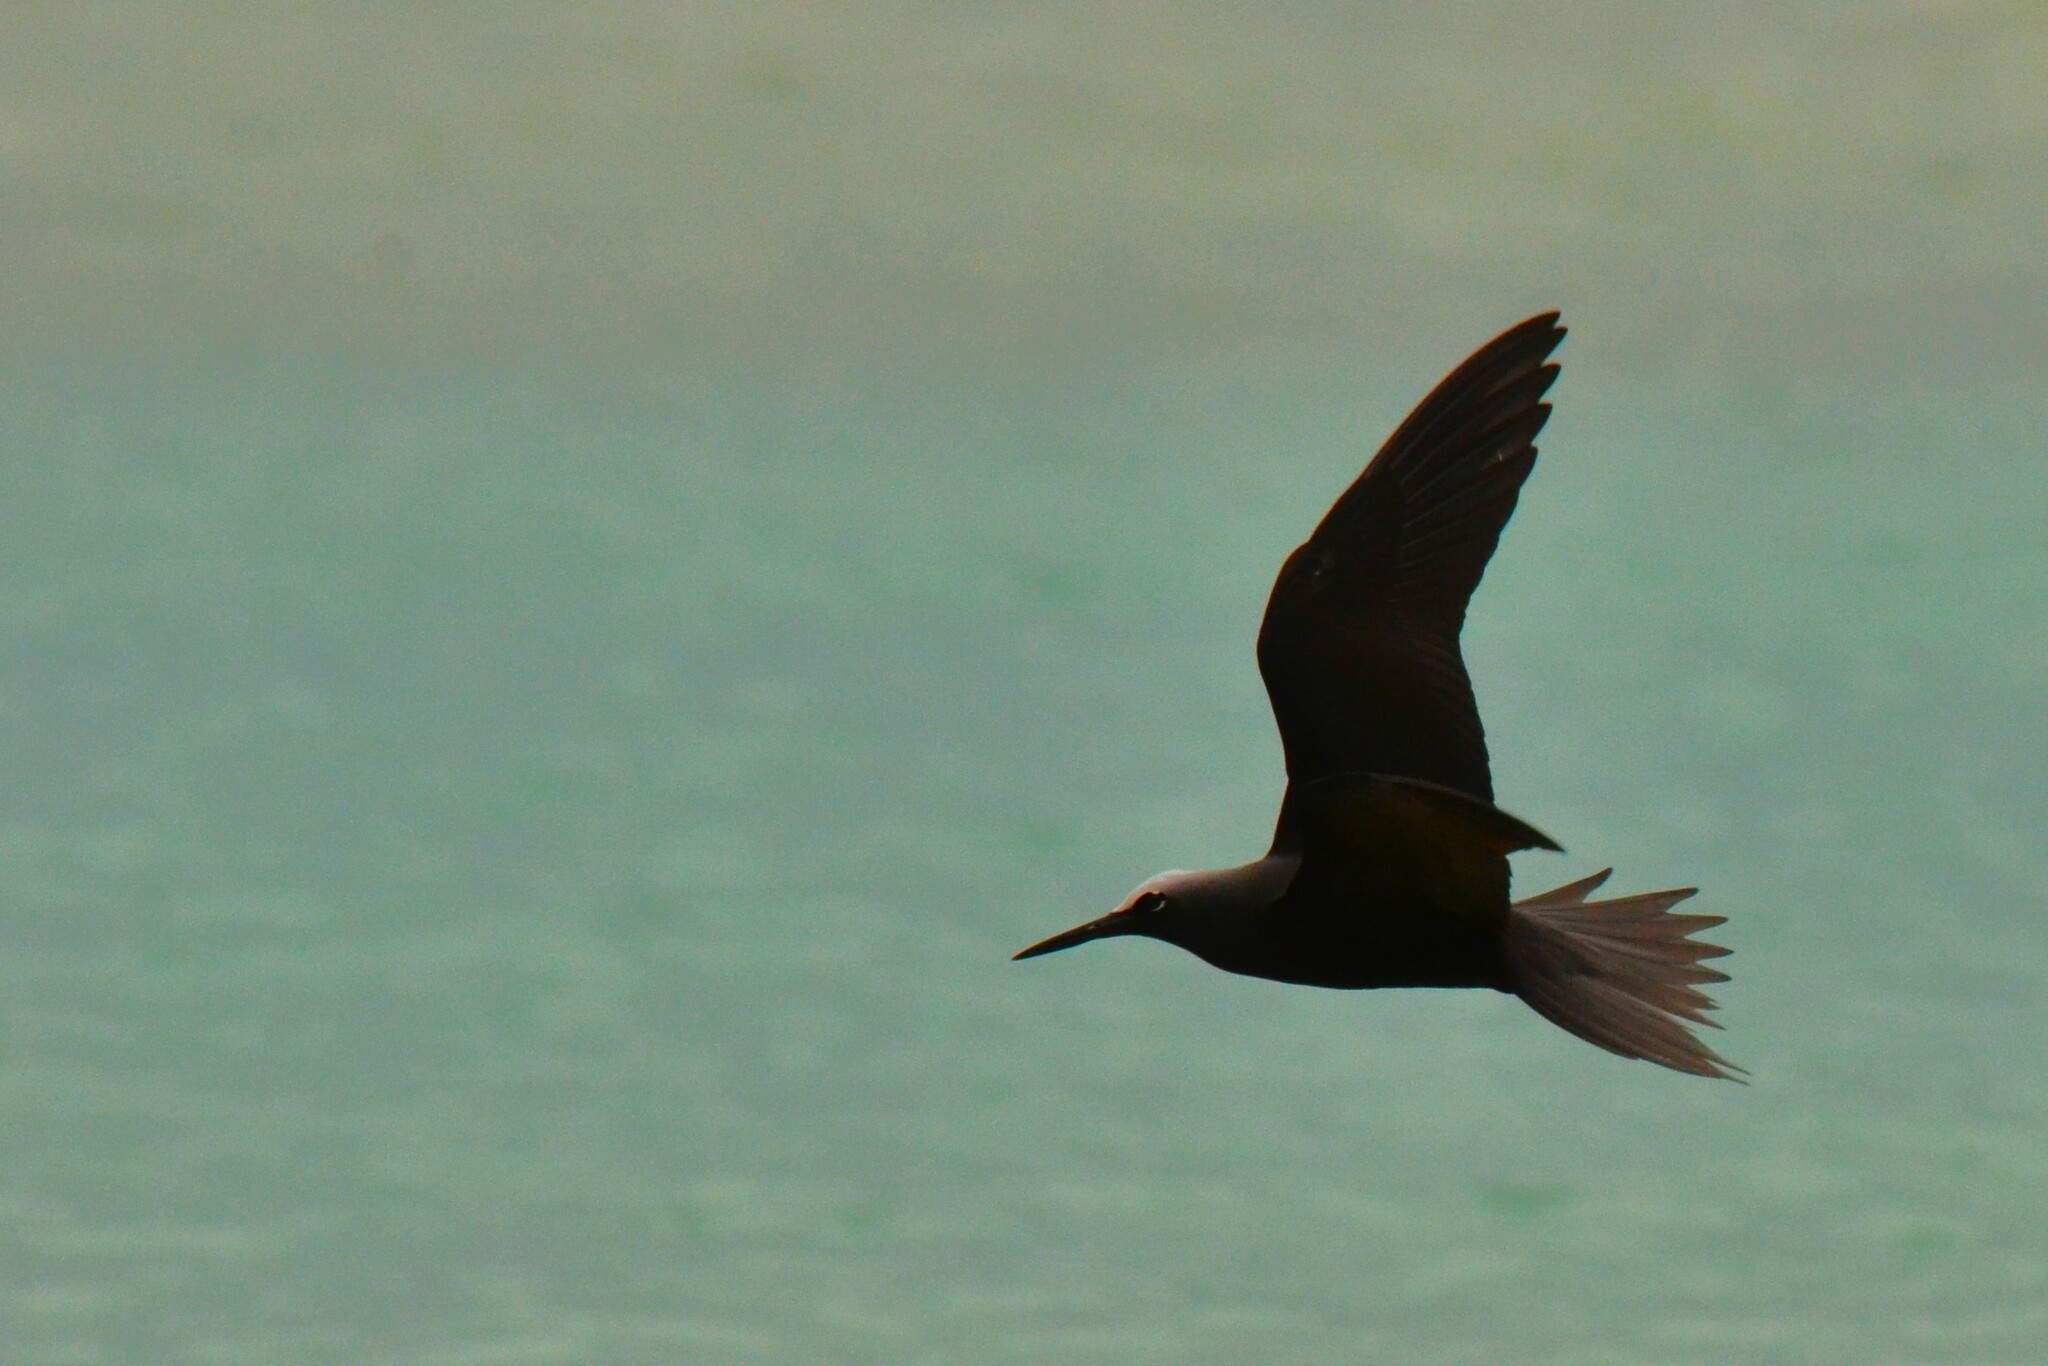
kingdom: Animalia
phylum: Chordata
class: Aves
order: Charadriiformes
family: Laridae
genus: Anous
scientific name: Anous minutus
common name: Black noddy
